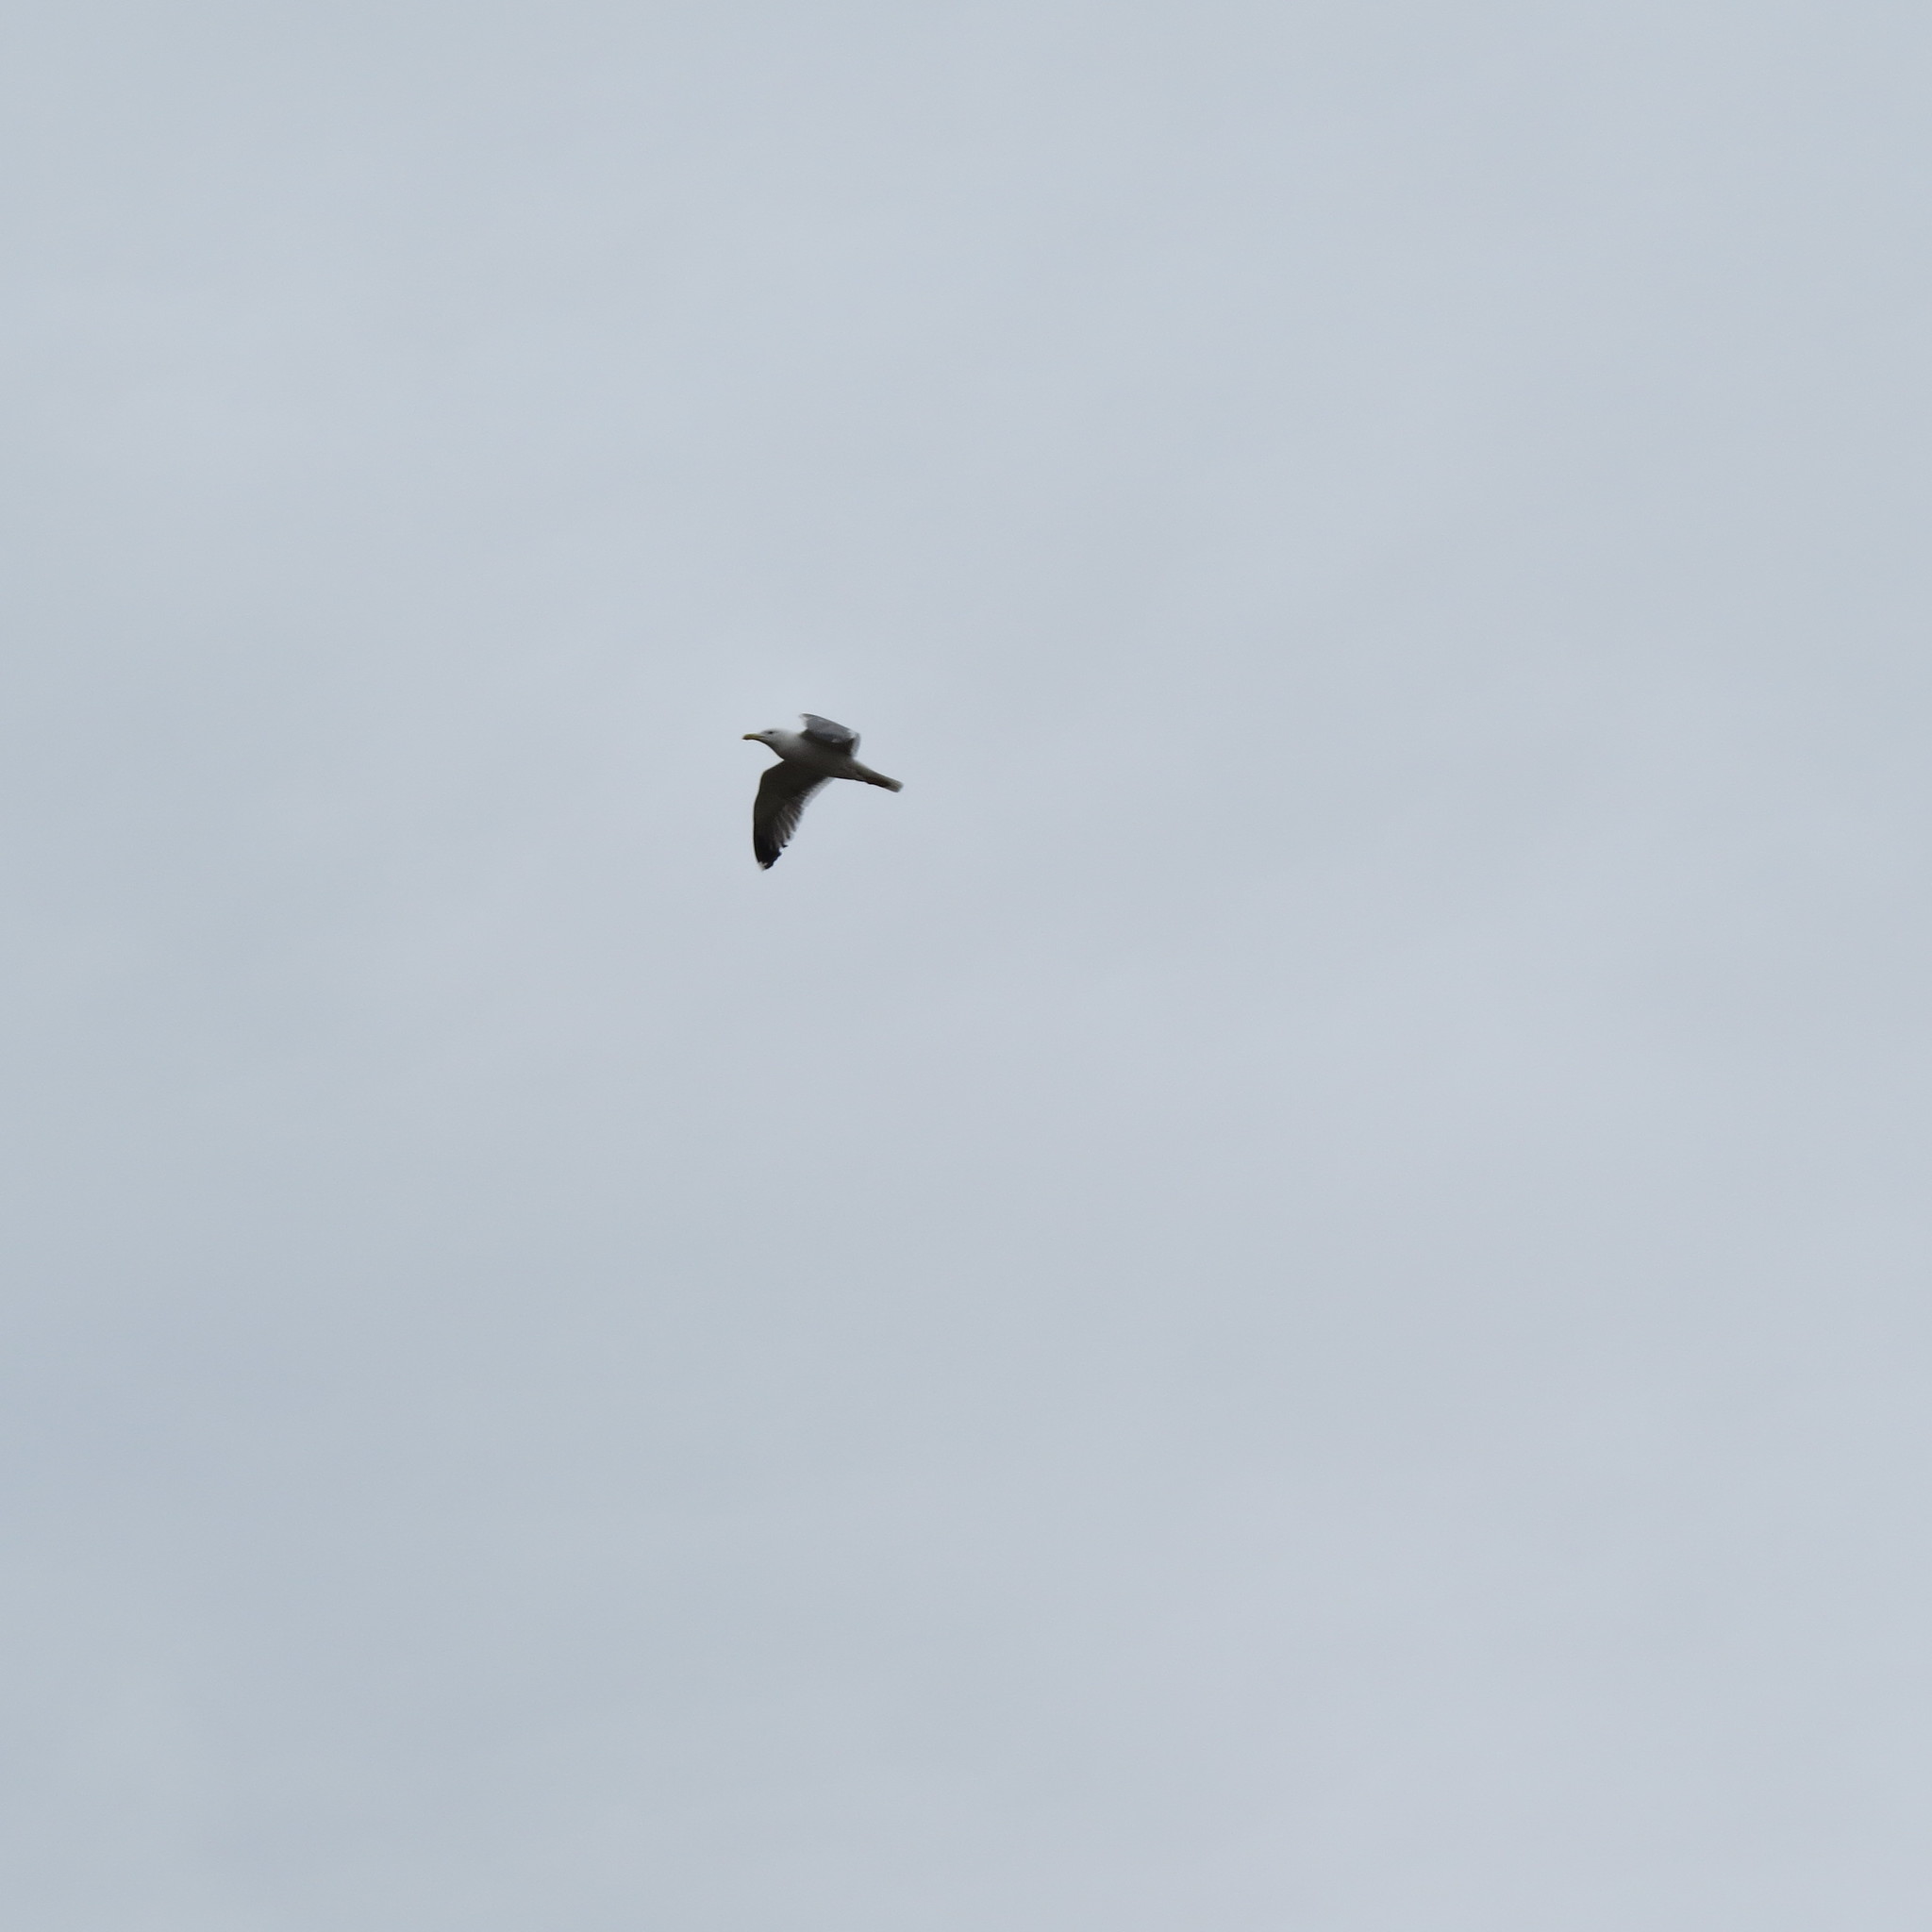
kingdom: Animalia
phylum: Chordata
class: Aves
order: Charadriiformes
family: Laridae
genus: Larus
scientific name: Larus
